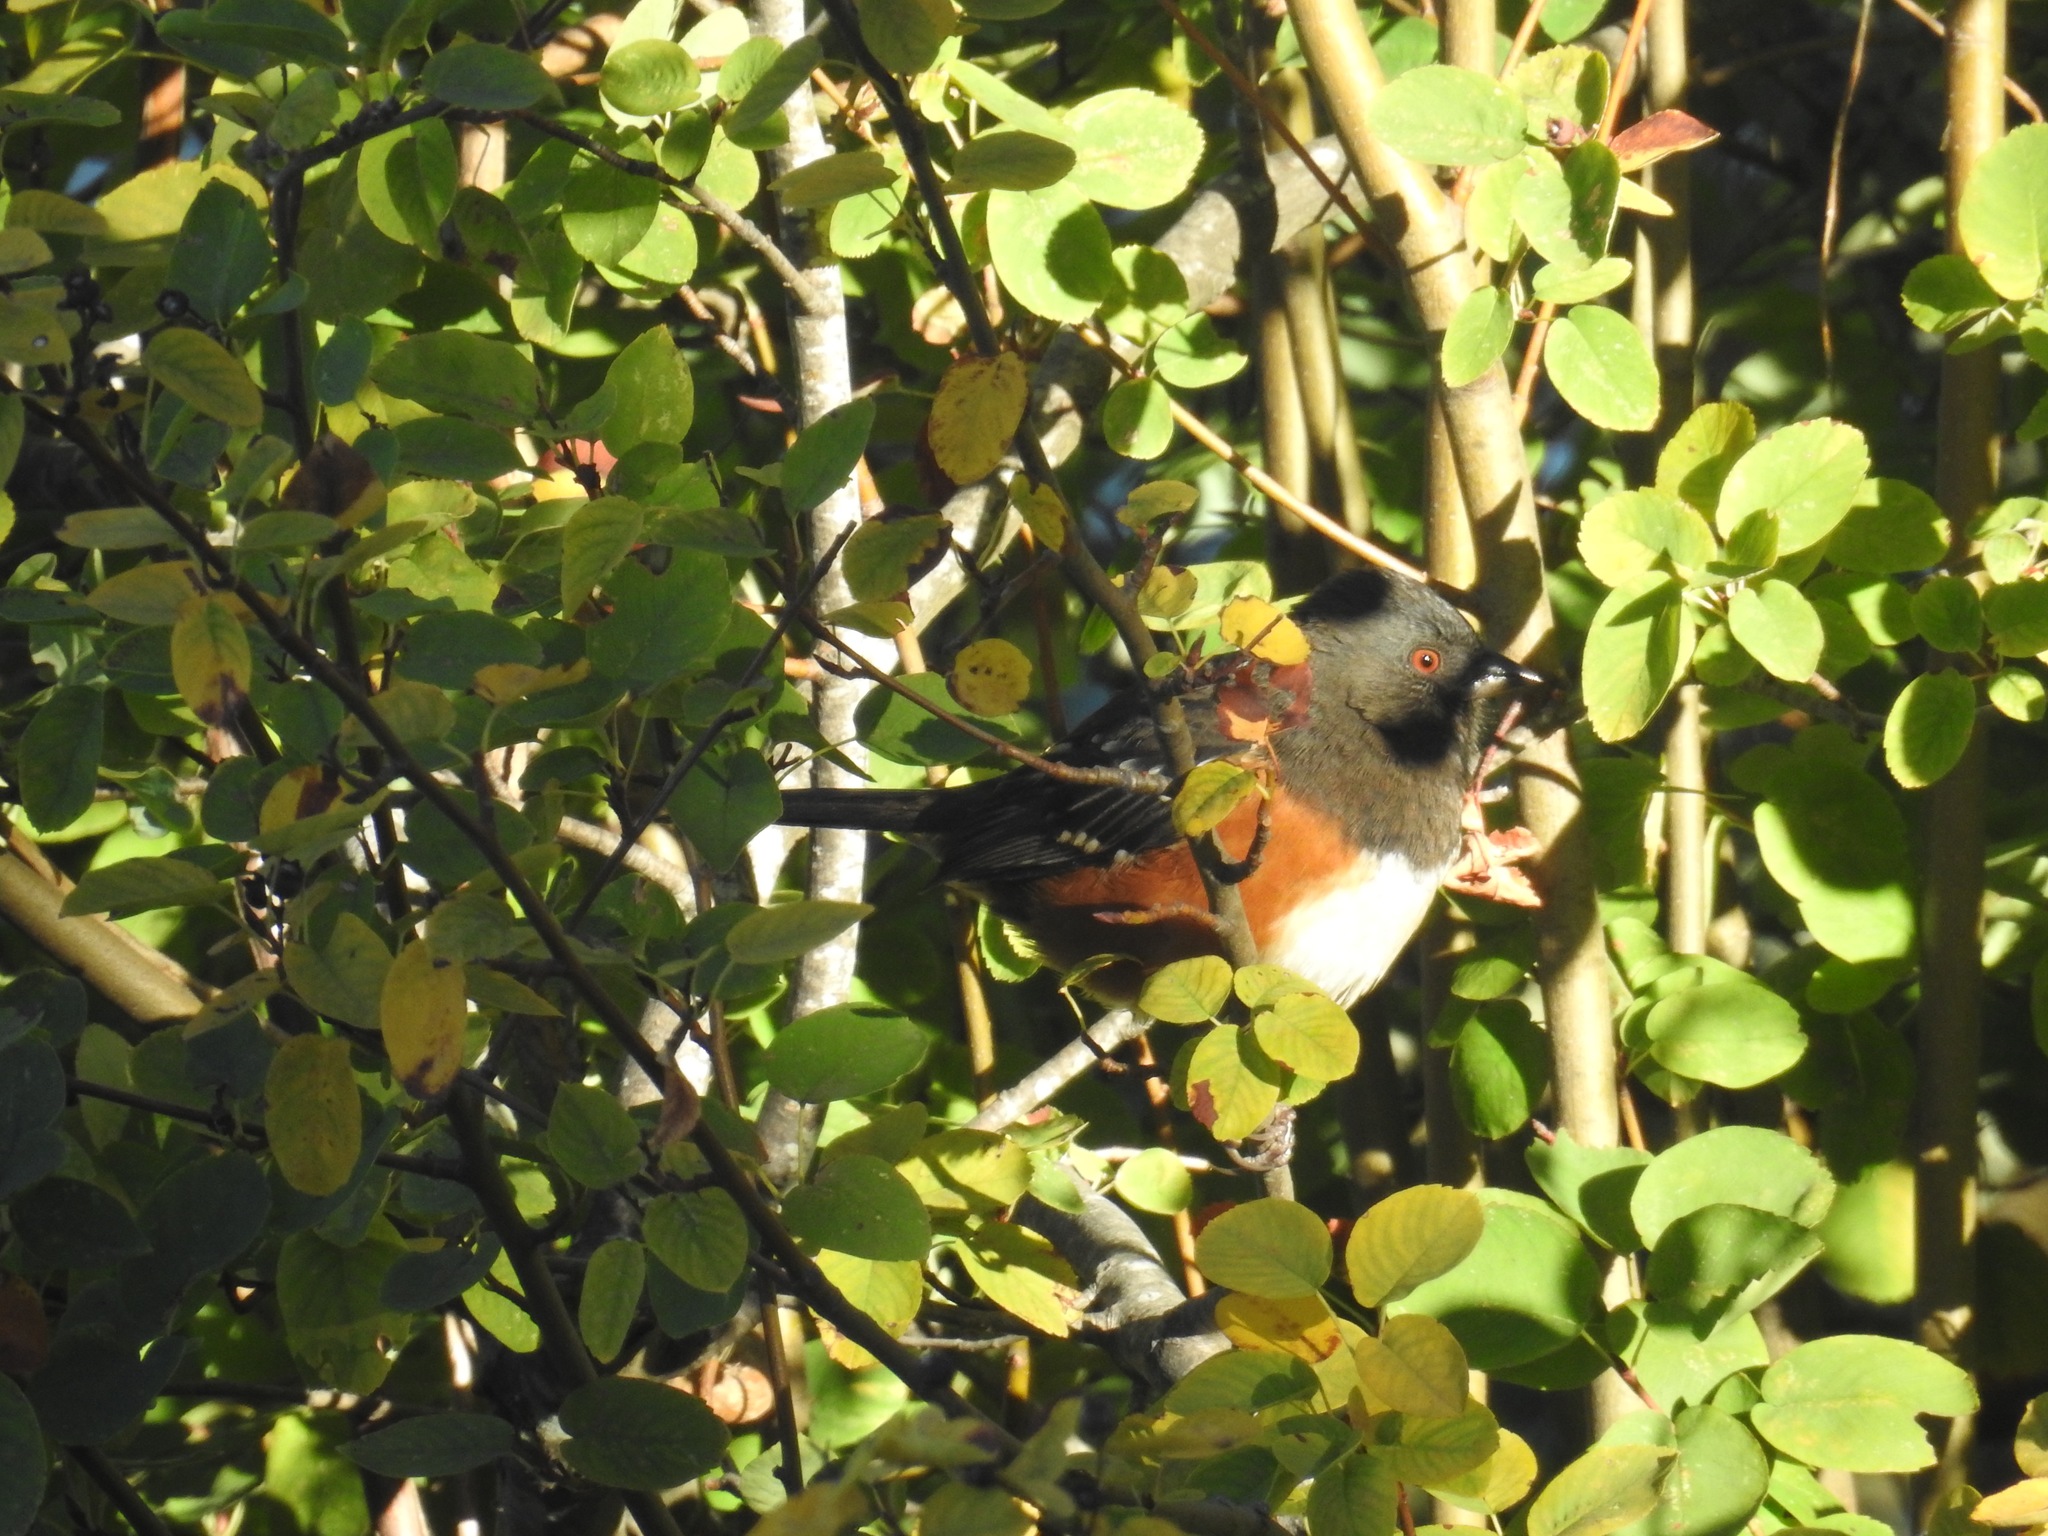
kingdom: Animalia
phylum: Chordata
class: Aves
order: Passeriformes
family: Passerellidae
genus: Pipilo
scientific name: Pipilo maculatus
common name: Spotted towhee
